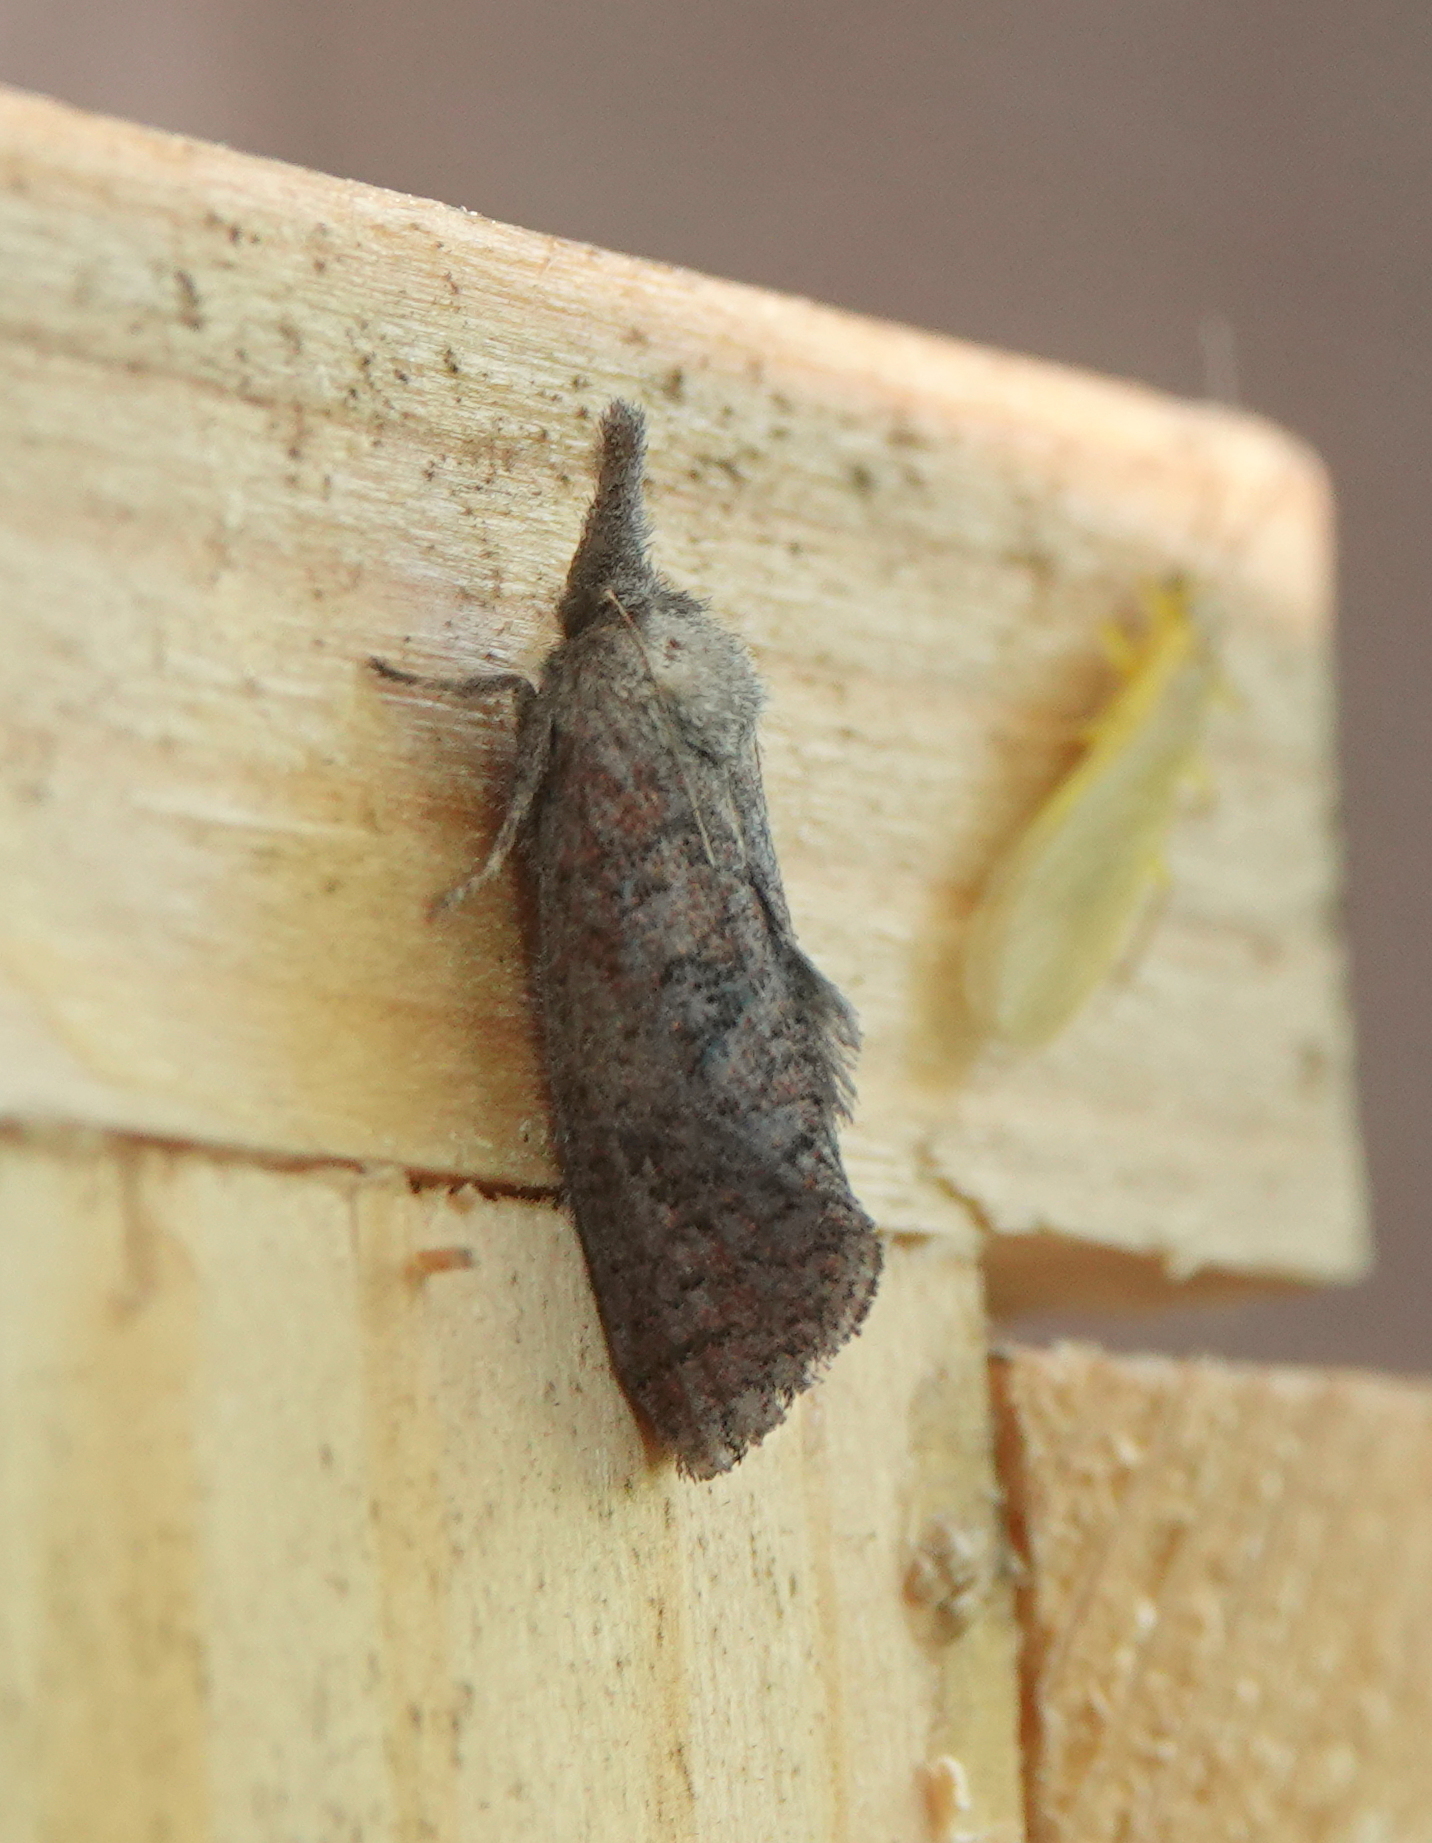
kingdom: Animalia
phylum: Arthropoda
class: Insecta
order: Lepidoptera
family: Tineidae
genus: Acrolophus
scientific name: Acrolophus plumifrontella
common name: Eastern grass tubeworm moth
